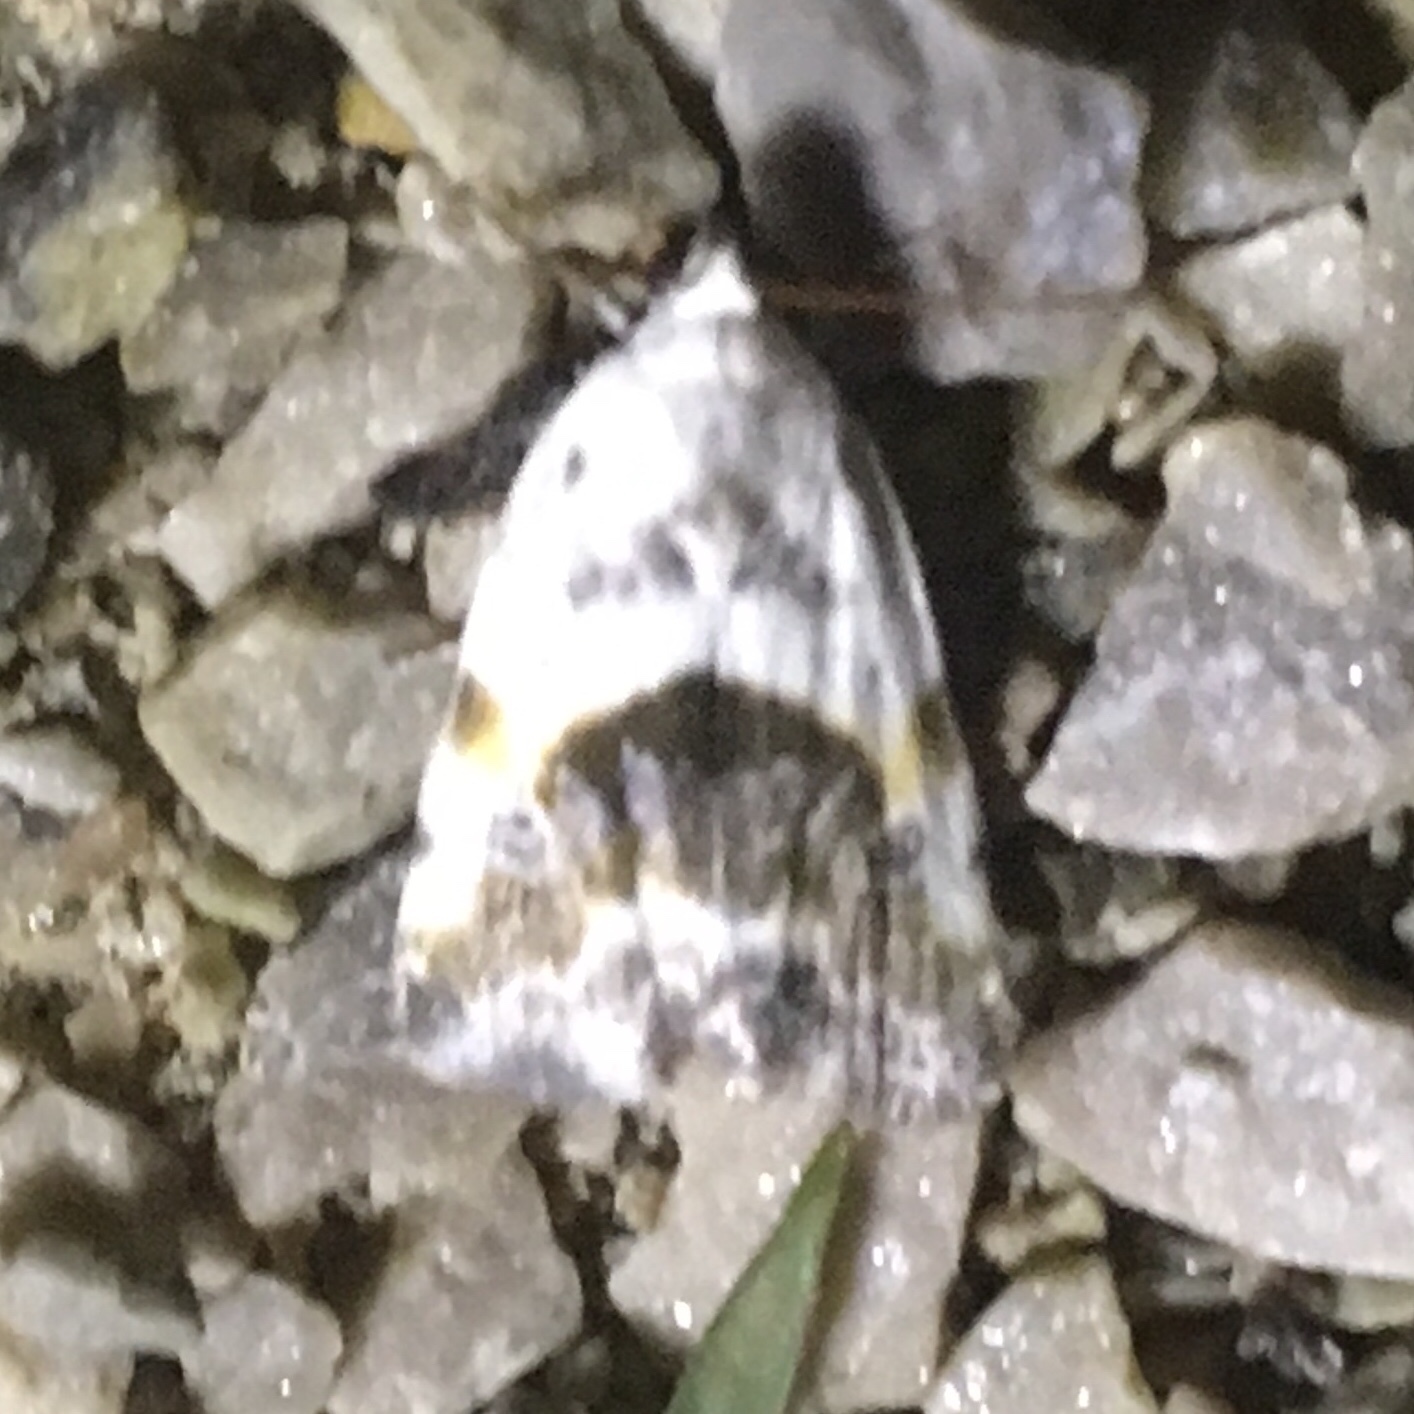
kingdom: Animalia
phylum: Arthropoda
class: Insecta
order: Lepidoptera
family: Noctuidae
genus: Acontia
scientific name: Acontia candefacta
